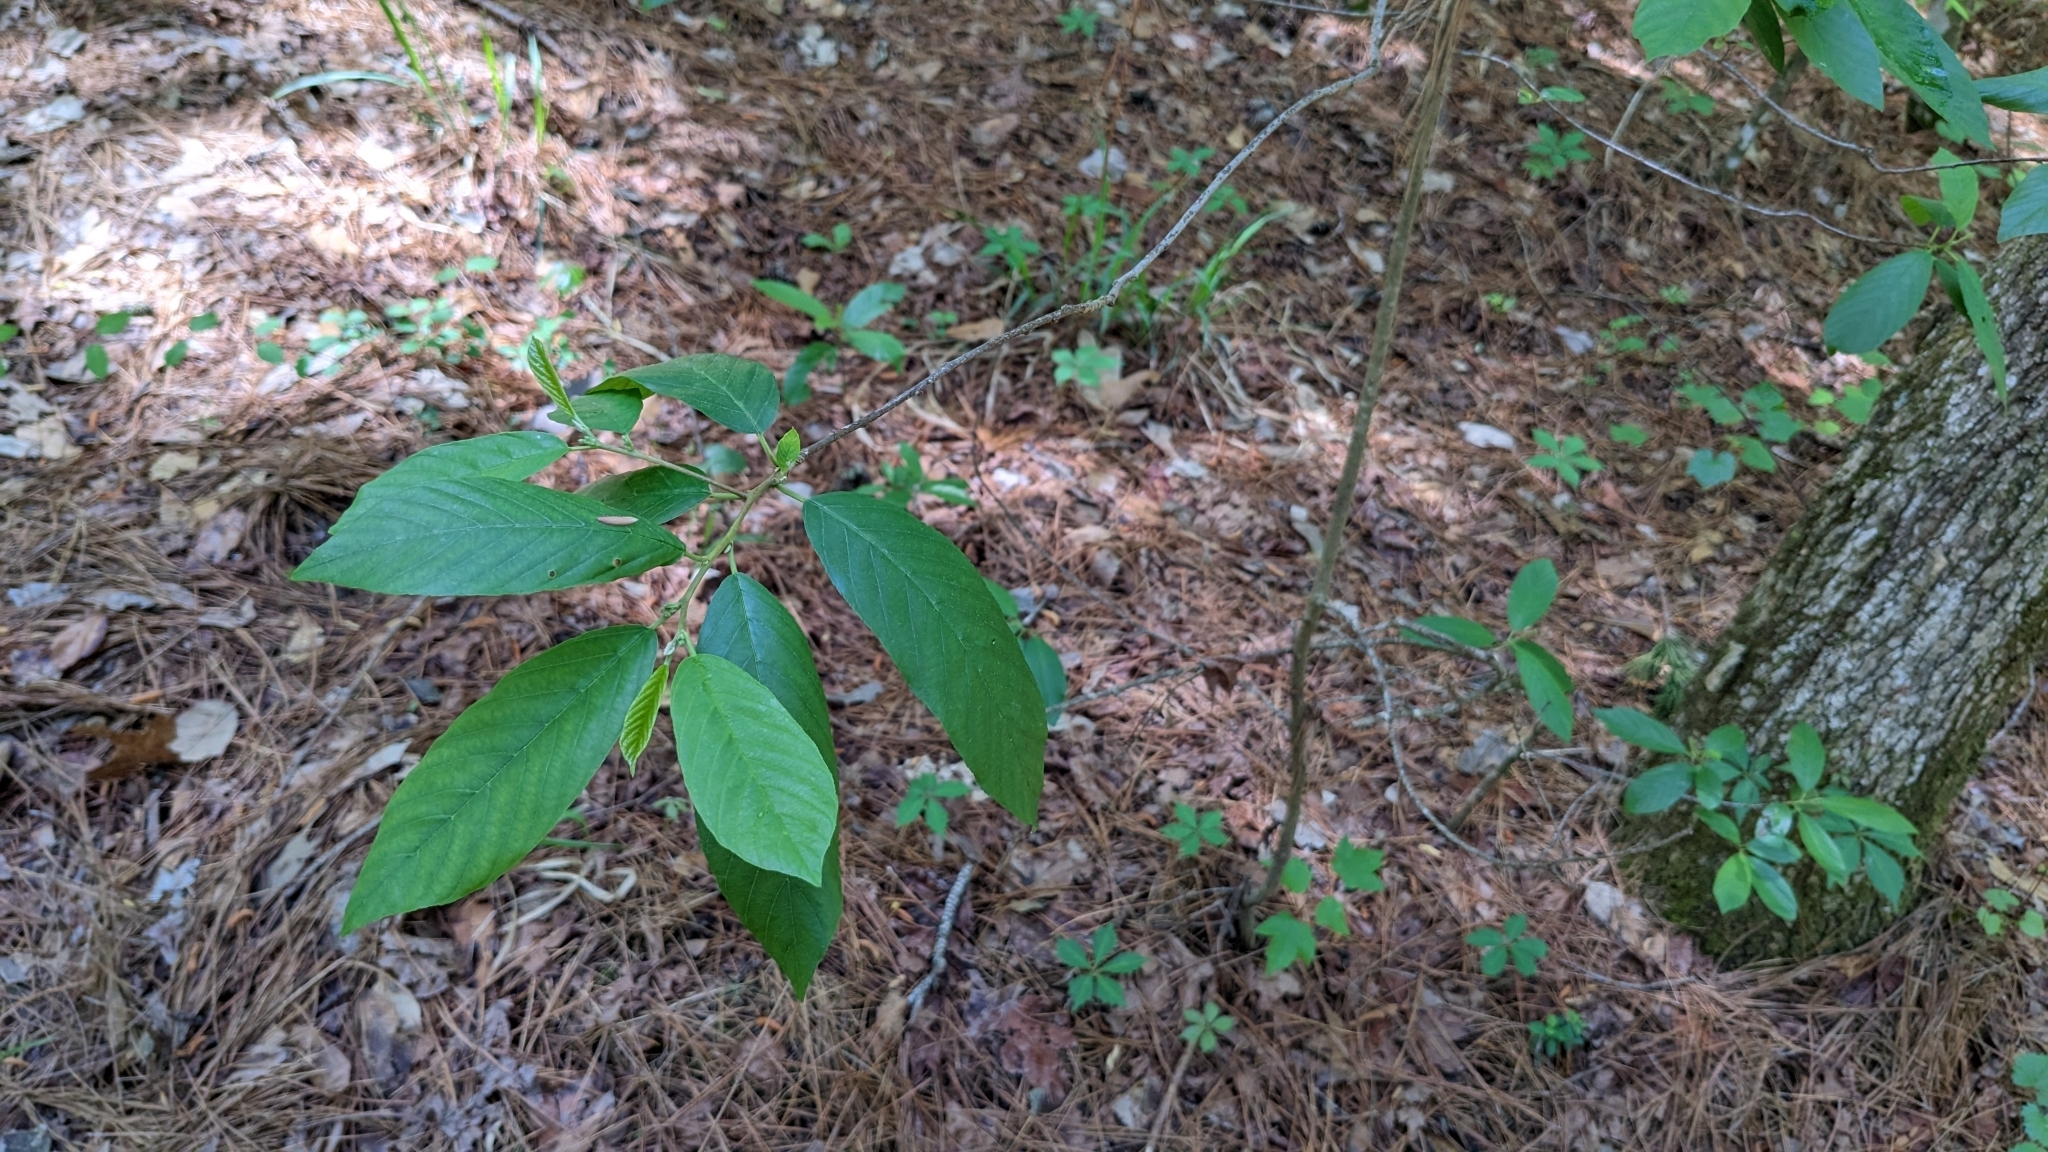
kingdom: Plantae
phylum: Tracheophyta
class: Magnoliopsida
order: Rosales
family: Rhamnaceae
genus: Frangula
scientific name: Frangula caroliniana
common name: Carolina buckthorn
